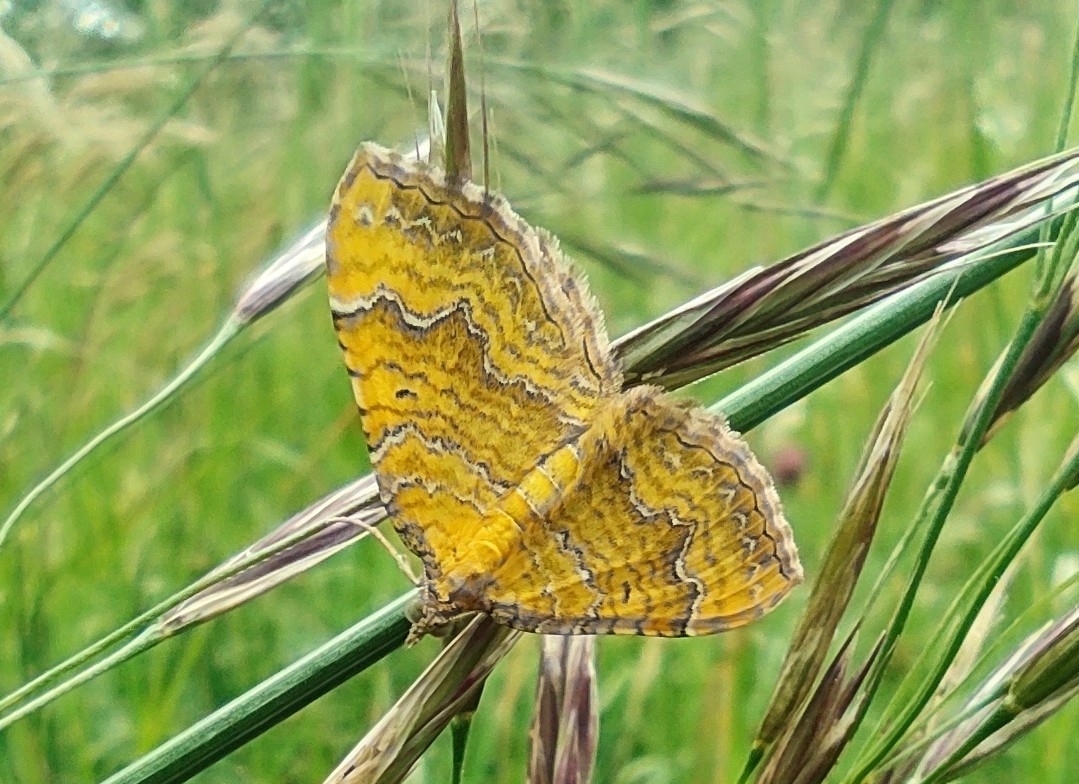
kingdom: Animalia
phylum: Arthropoda
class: Insecta
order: Lepidoptera
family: Geometridae
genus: Camptogramma
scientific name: Camptogramma bilineata
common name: Yellow shell
